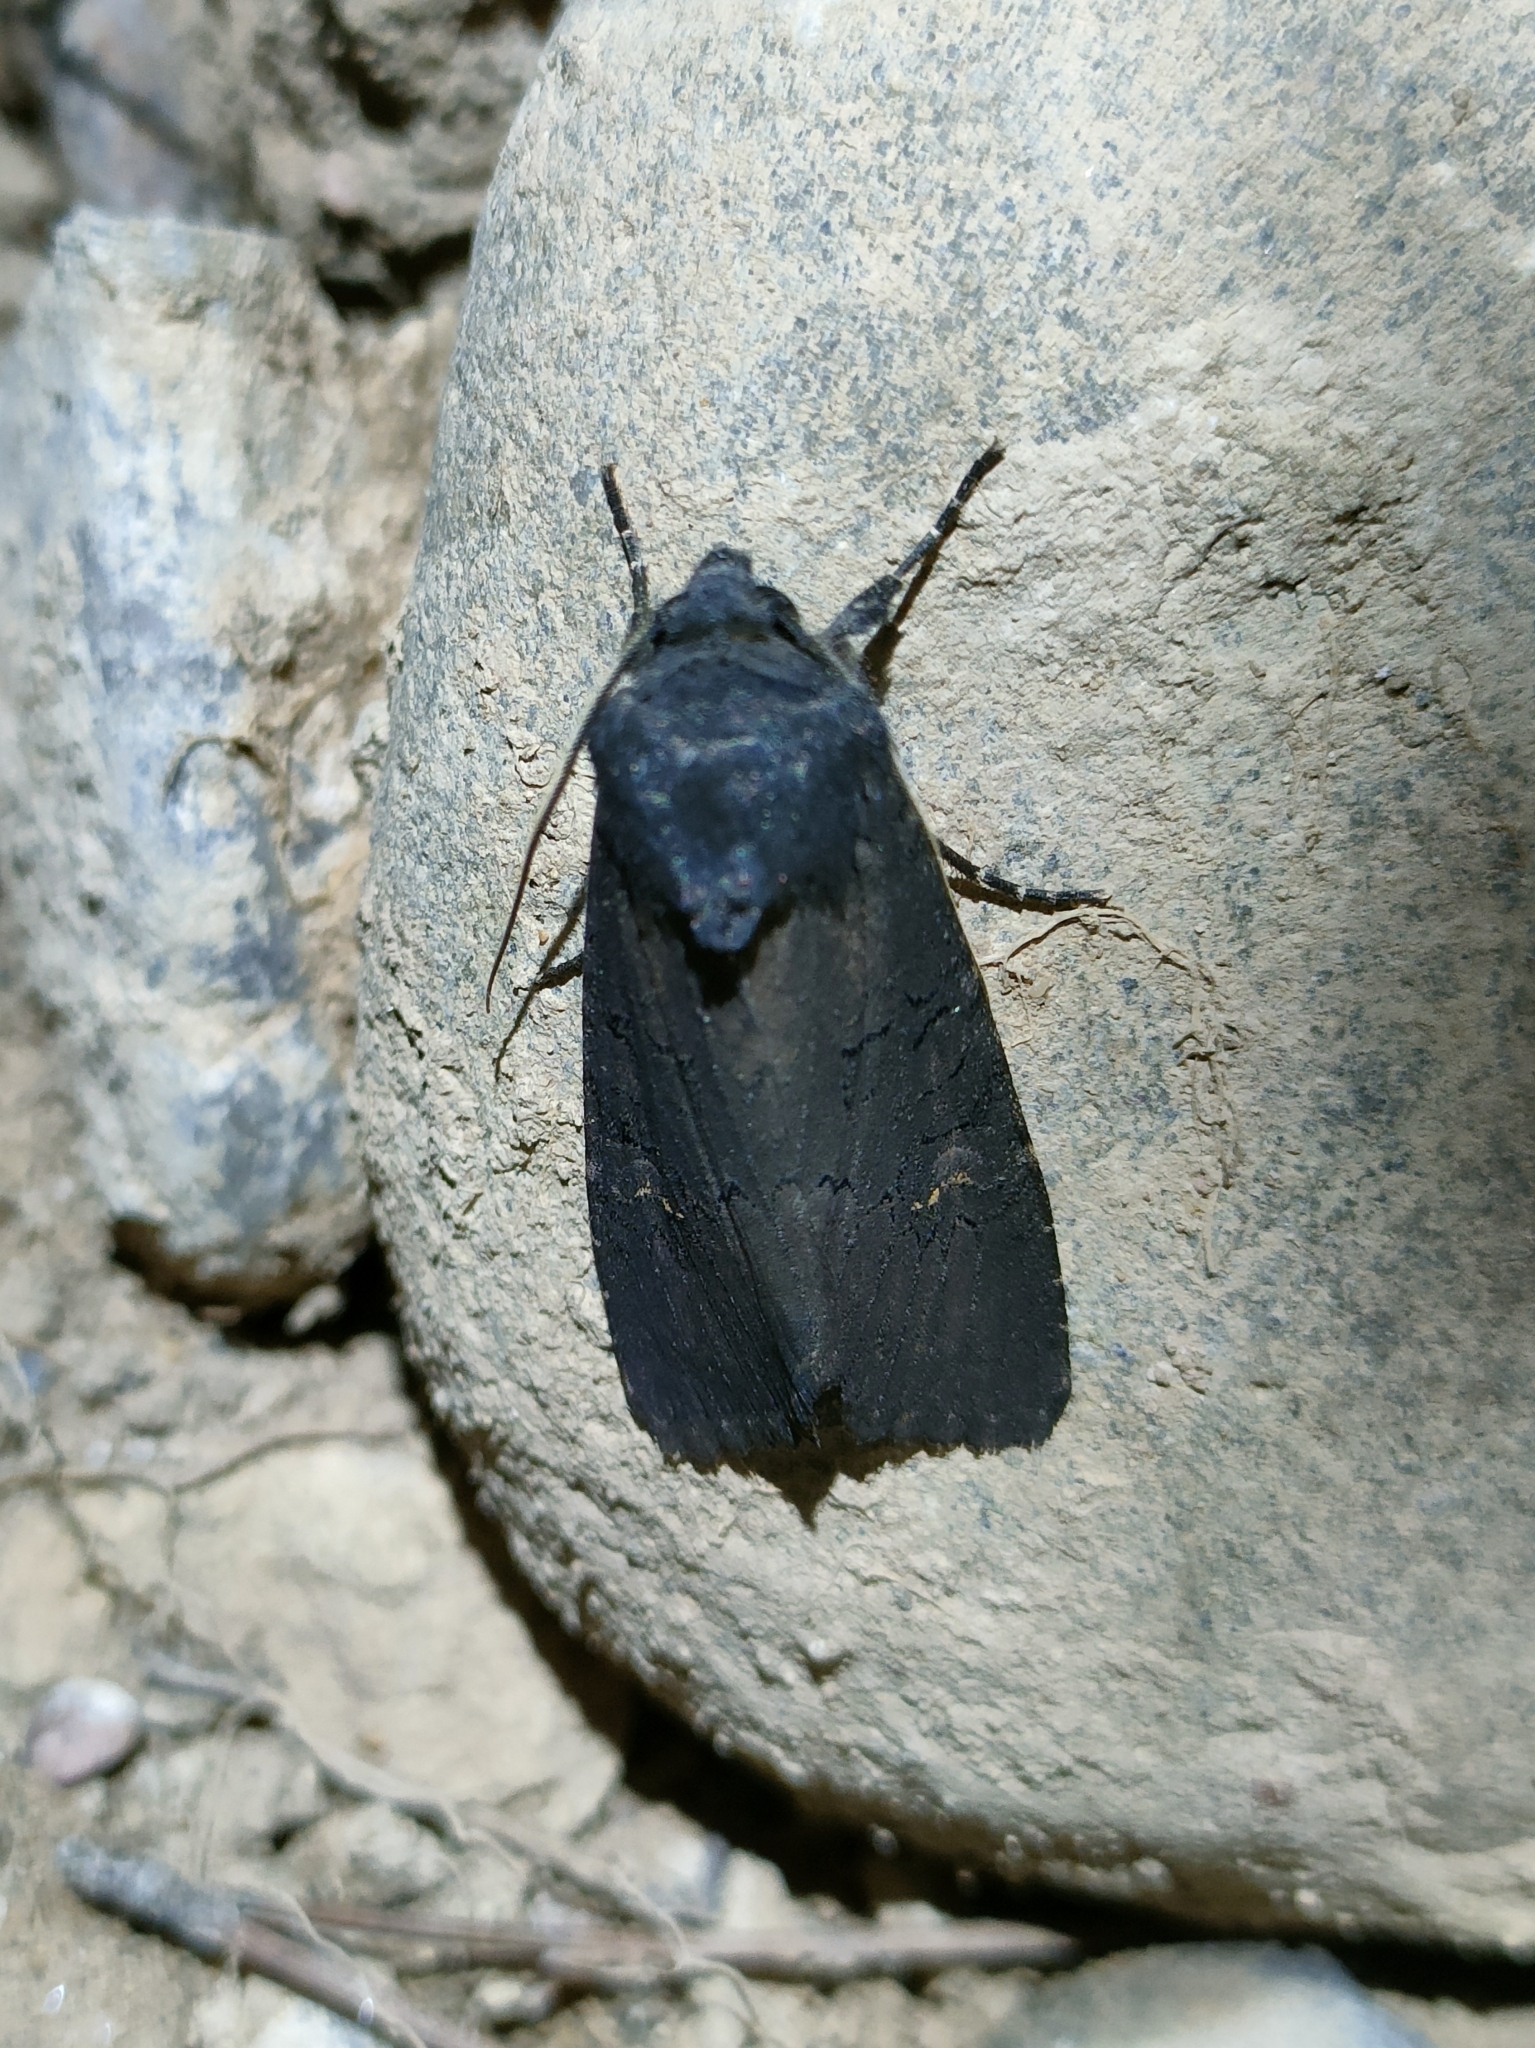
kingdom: Animalia
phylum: Arthropoda
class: Insecta
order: Lepidoptera
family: Noctuidae
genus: Aporophyla
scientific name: Aporophyla nigra
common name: Black rustic
